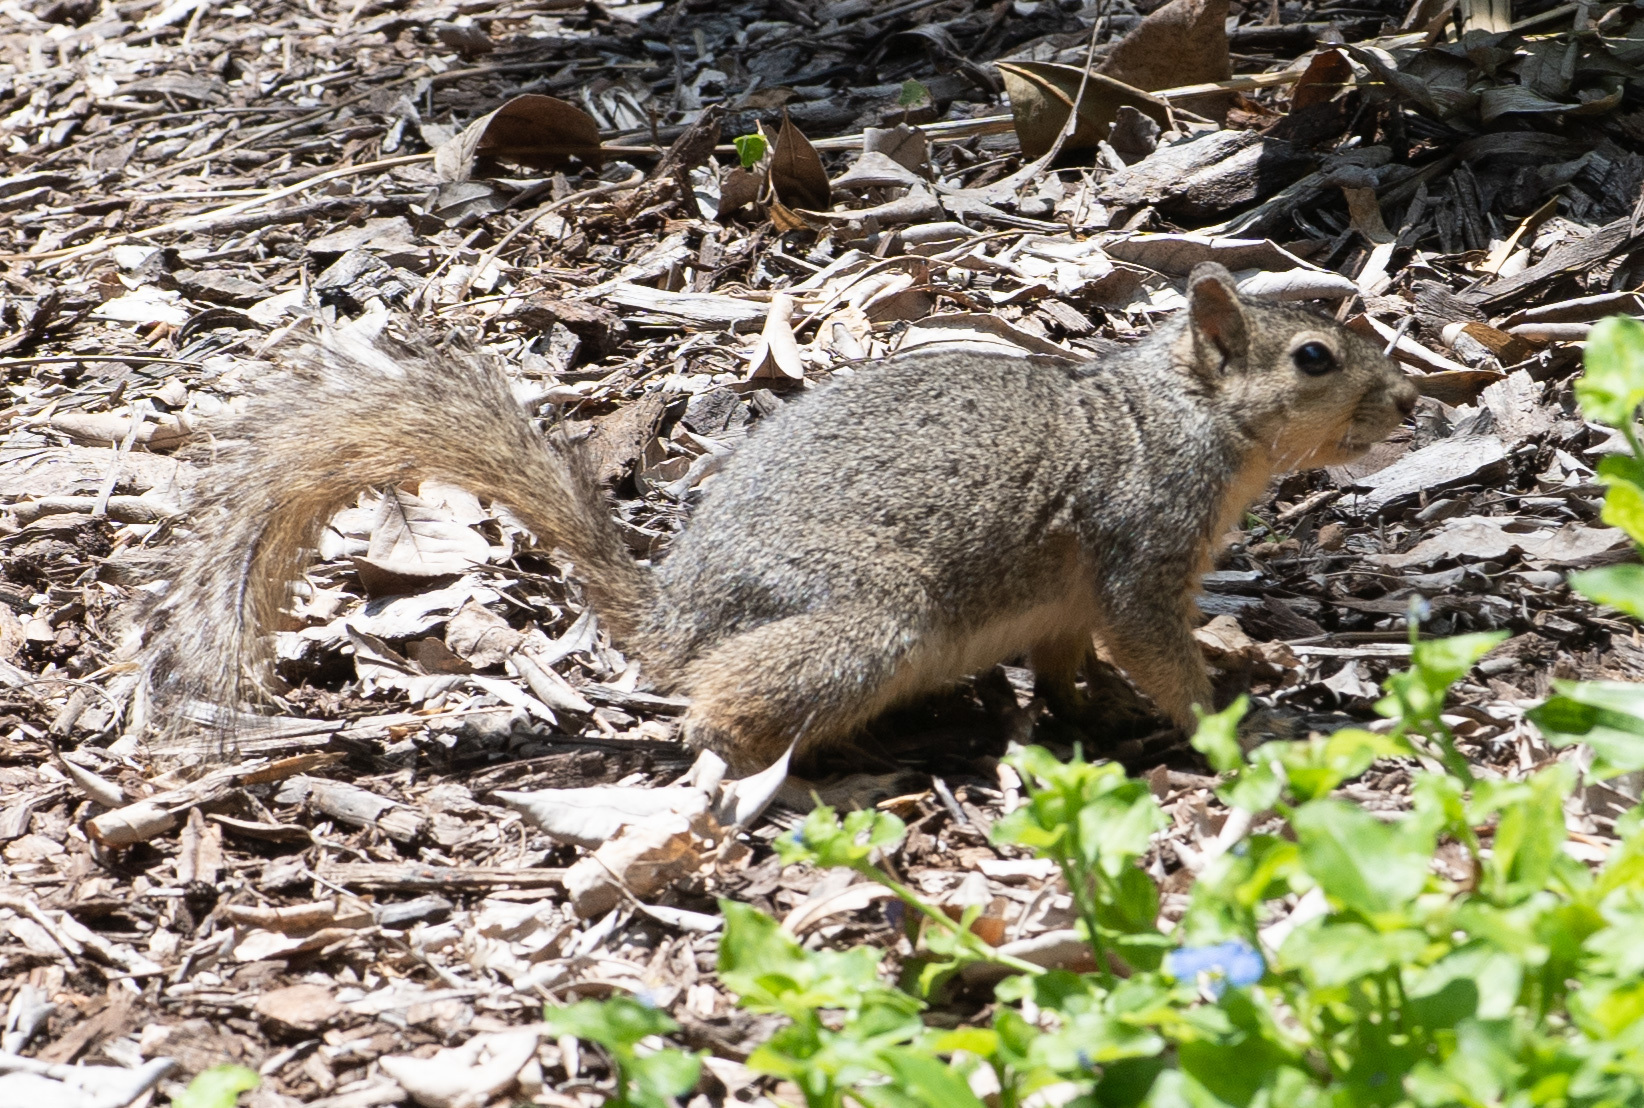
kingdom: Animalia
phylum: Chordata
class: Mammalia
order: Rodentia
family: Sciuridae
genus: Sciurus
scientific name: Sciurus niger
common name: Fox squirrel
